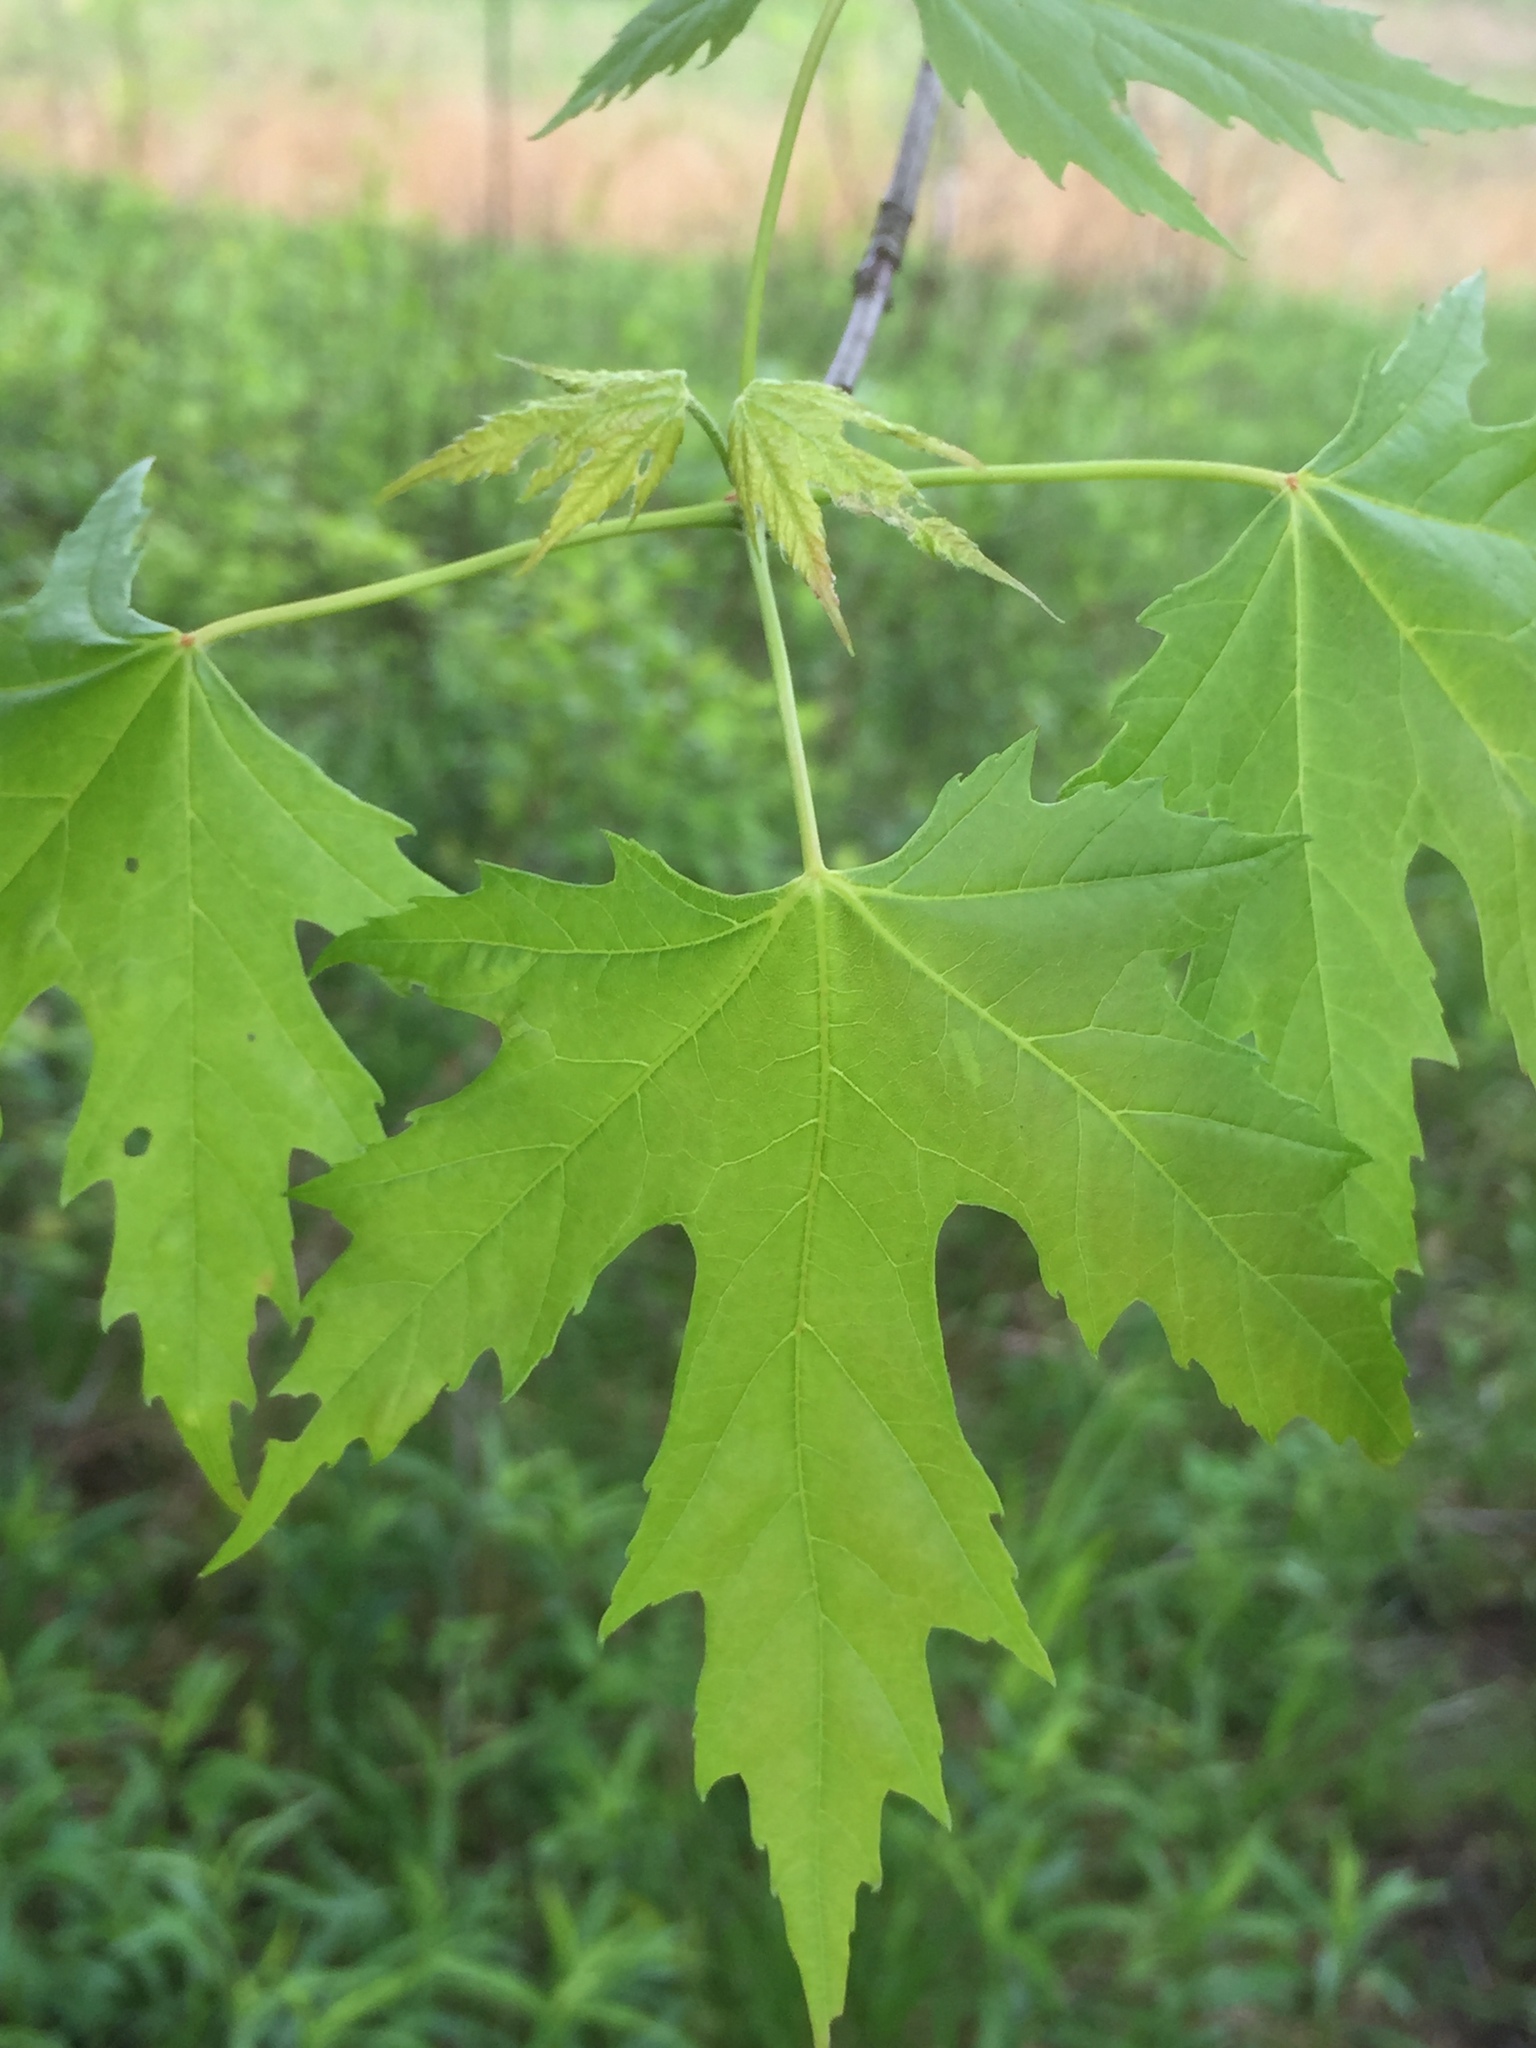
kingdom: Plantae
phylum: Tracheophyta
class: Magnoliopsida
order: Sapindales
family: Sapindaceae
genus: Acer
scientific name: Acer saccharinum
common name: Silver maple
